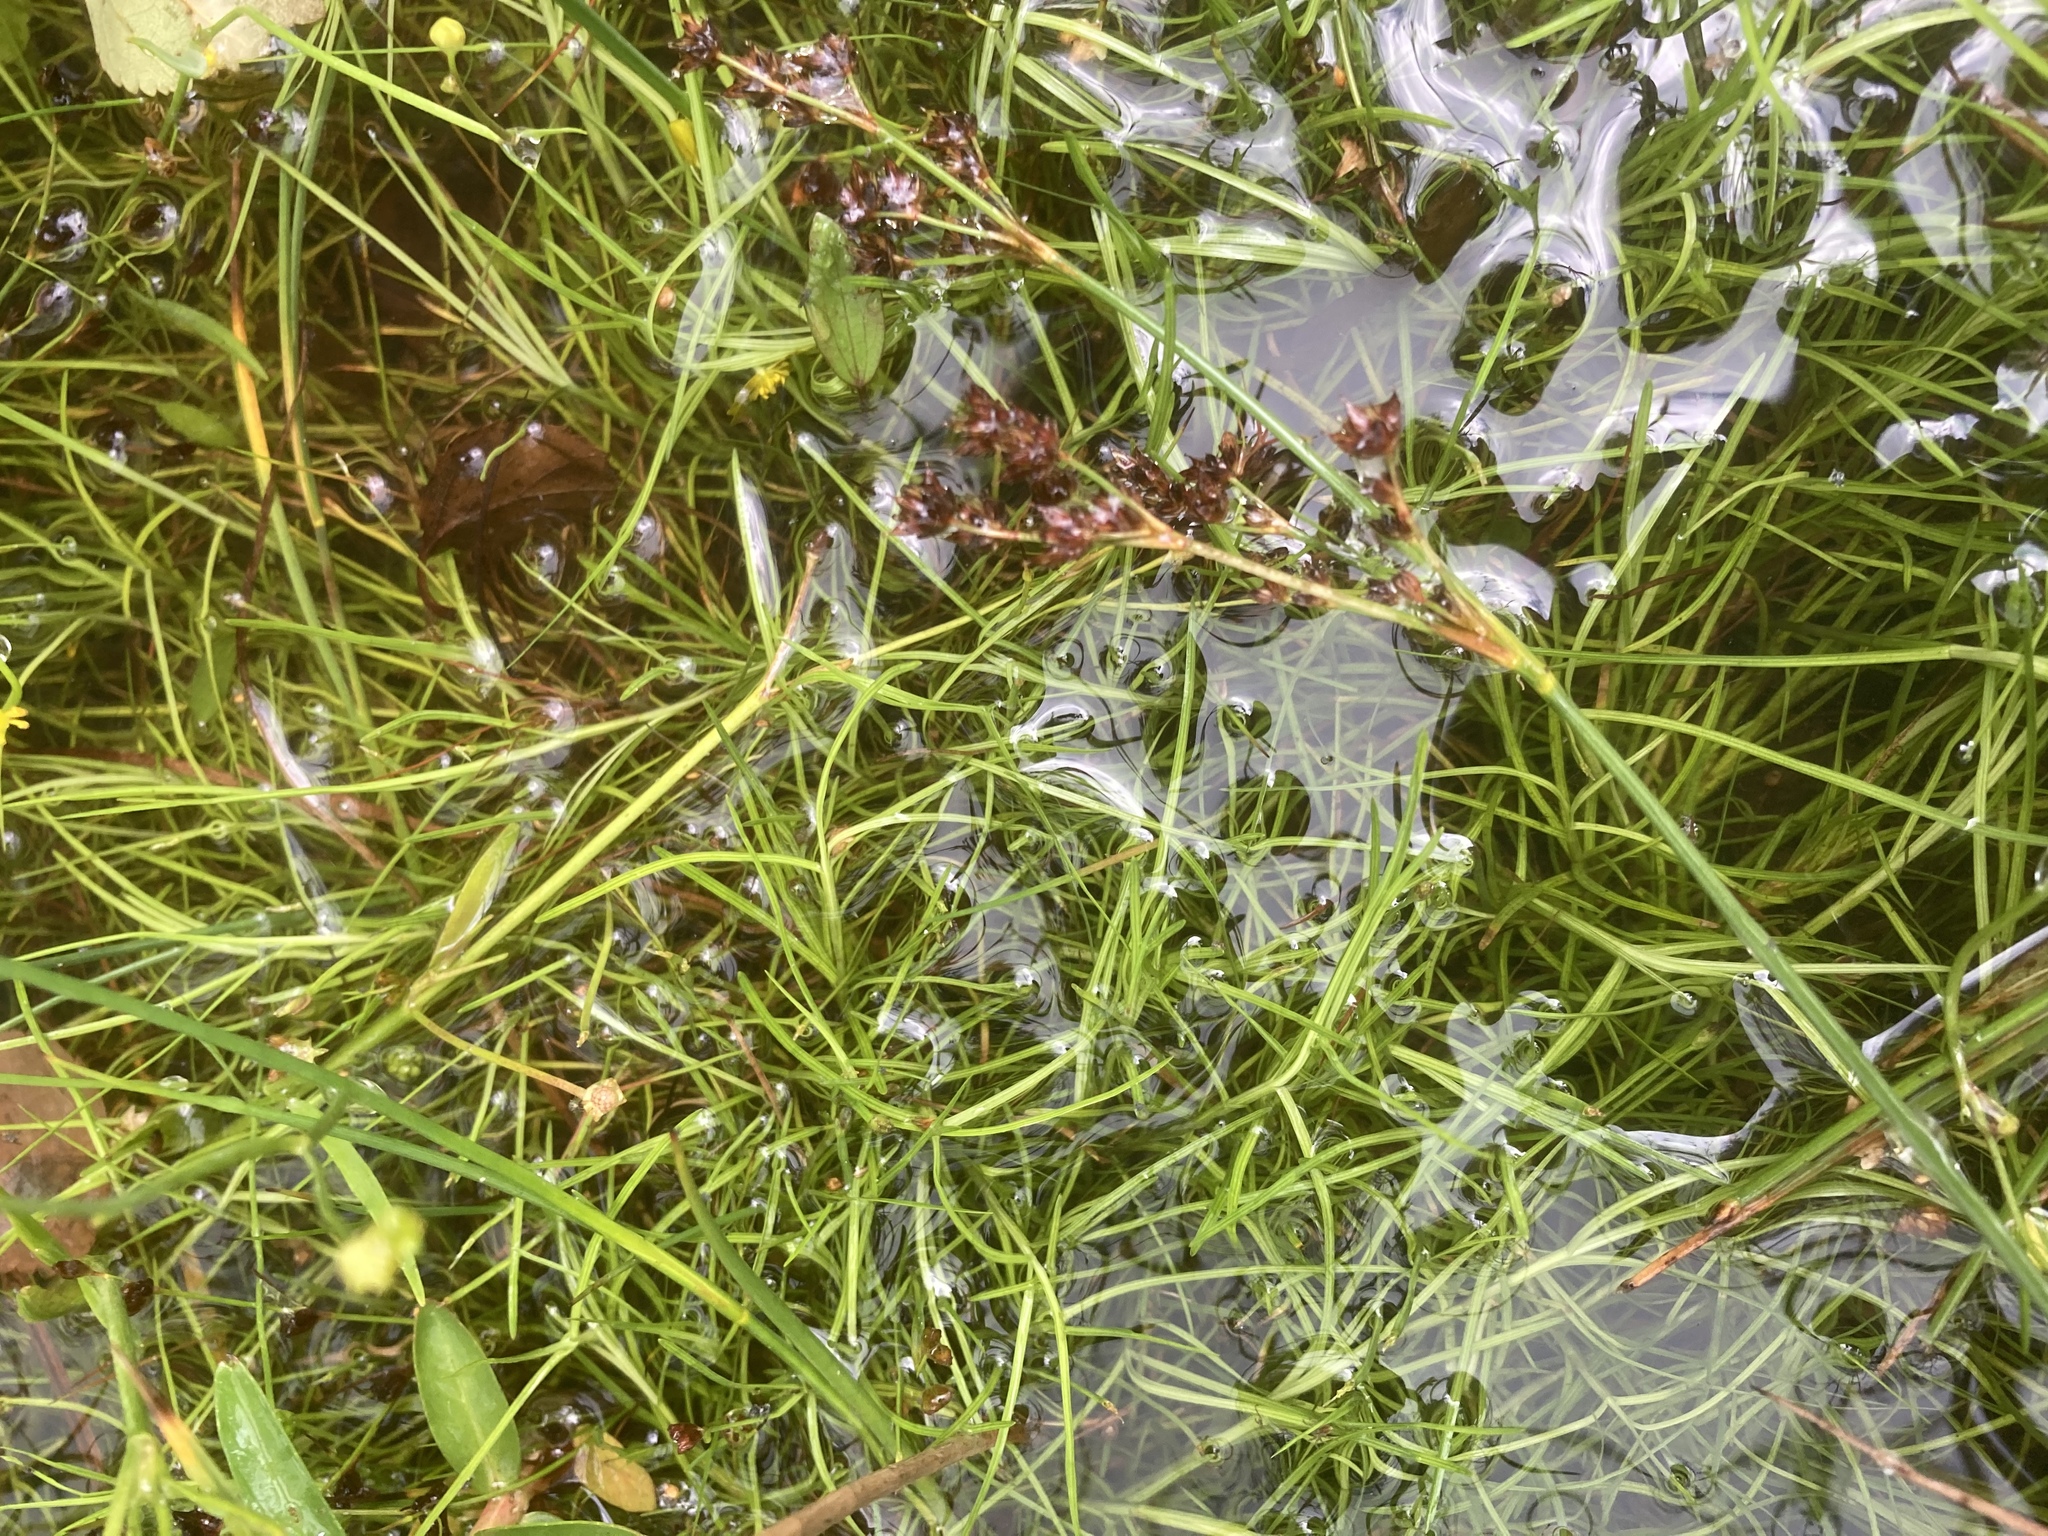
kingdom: Plantae
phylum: Tracheophyta
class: Liliopsida
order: Poales
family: Cyperaceae
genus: Isolepis
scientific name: Isolepis fluitans
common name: Floating club-rush
